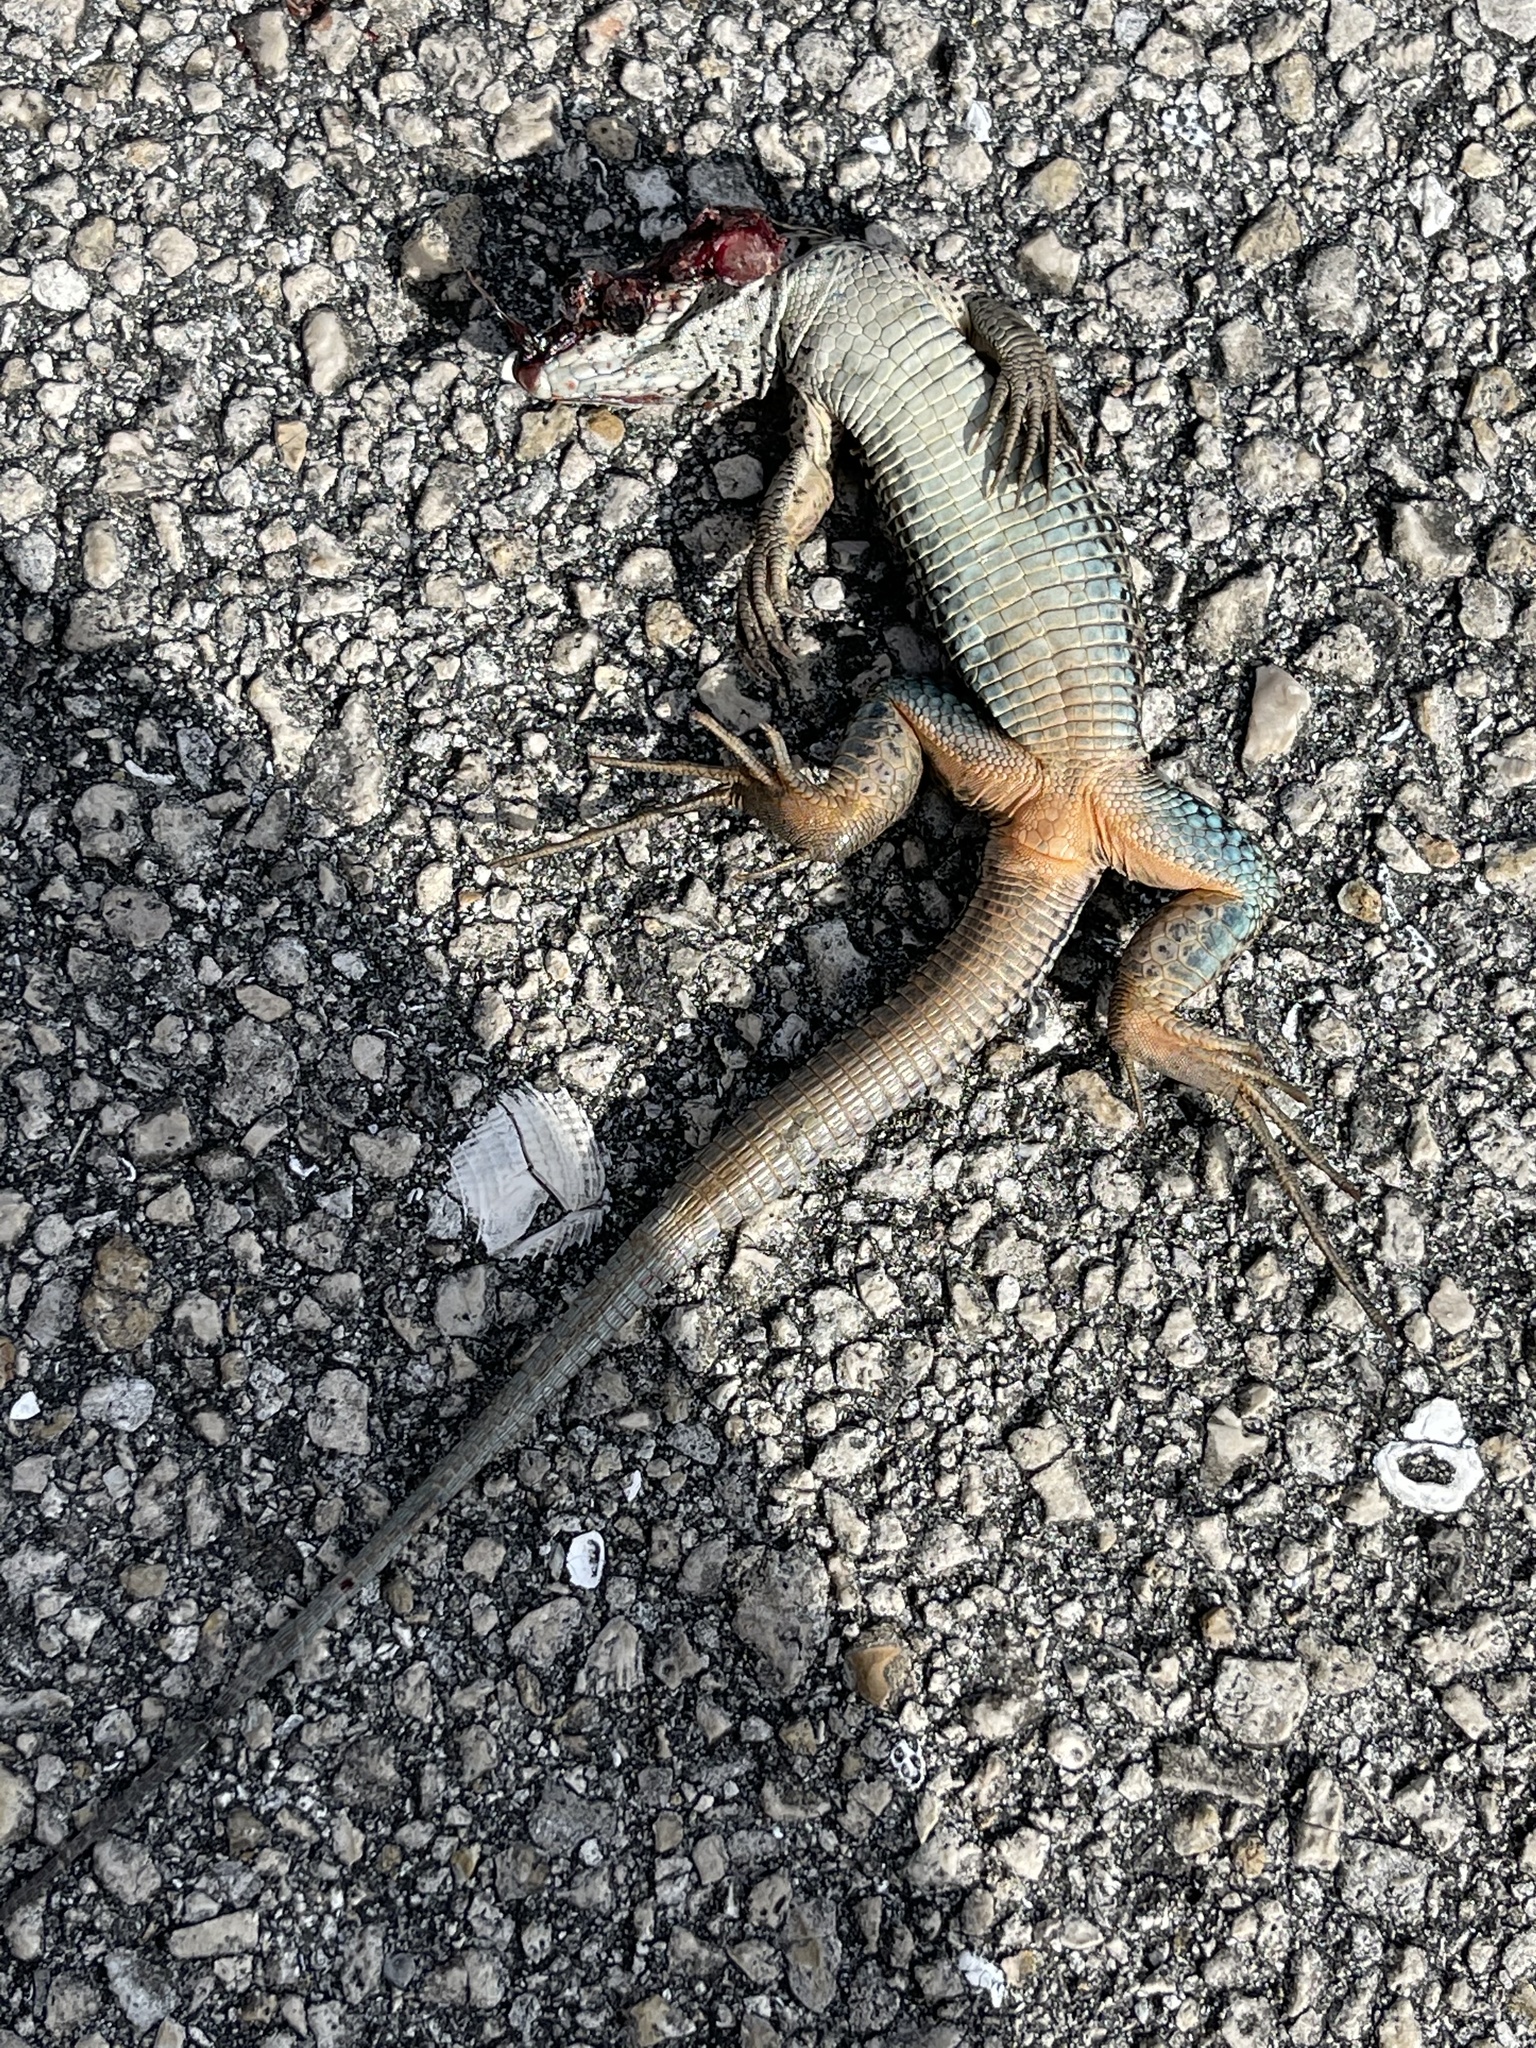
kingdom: Animalia
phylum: Chordata
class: Squamata
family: Teiidae
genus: Ameiva
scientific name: Ameiva ameiva
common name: Giant ameiva
